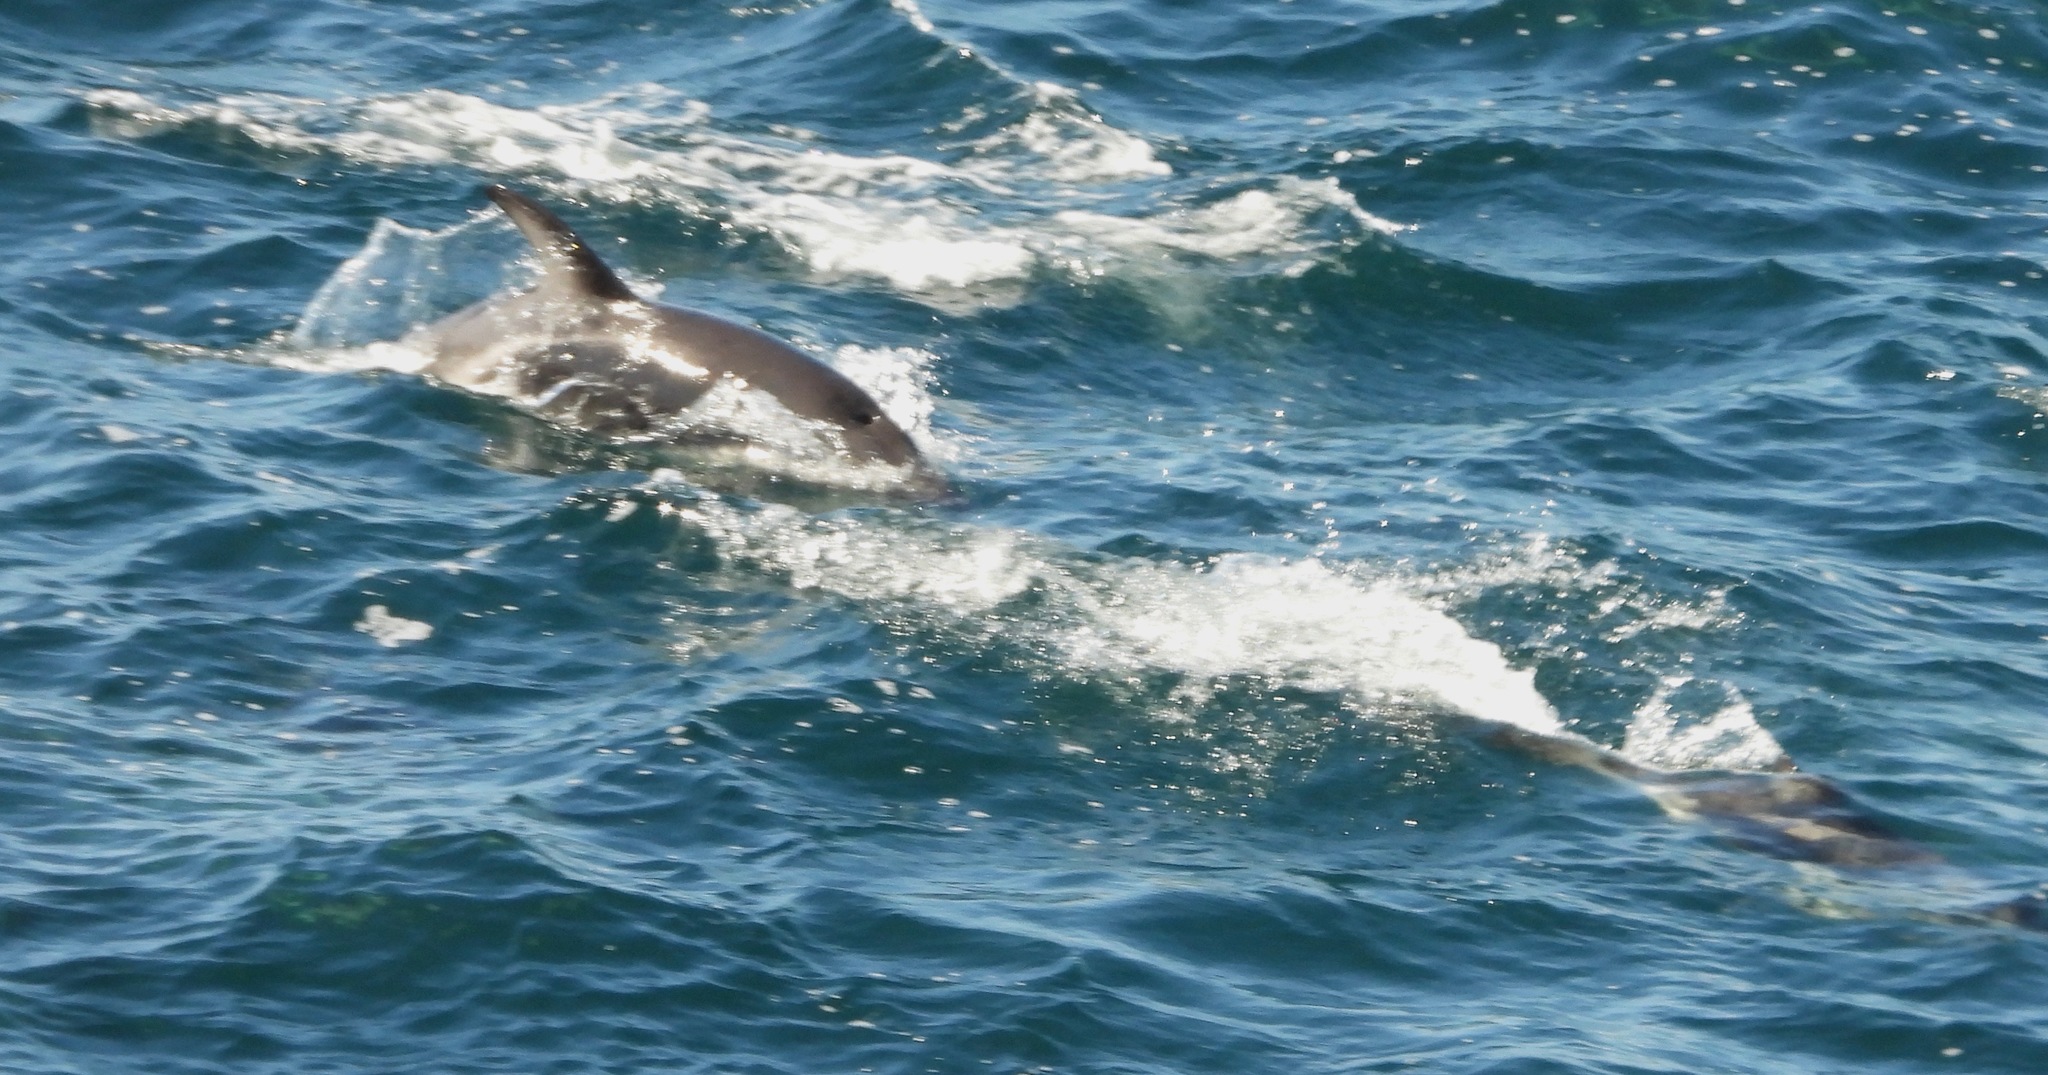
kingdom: Animalia
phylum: Chordata
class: Mammalia
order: Cetacea
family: Delphinidae
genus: Lagenorhynchus
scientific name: Lagenorhynchus obscurus
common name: Dusky dolphin
